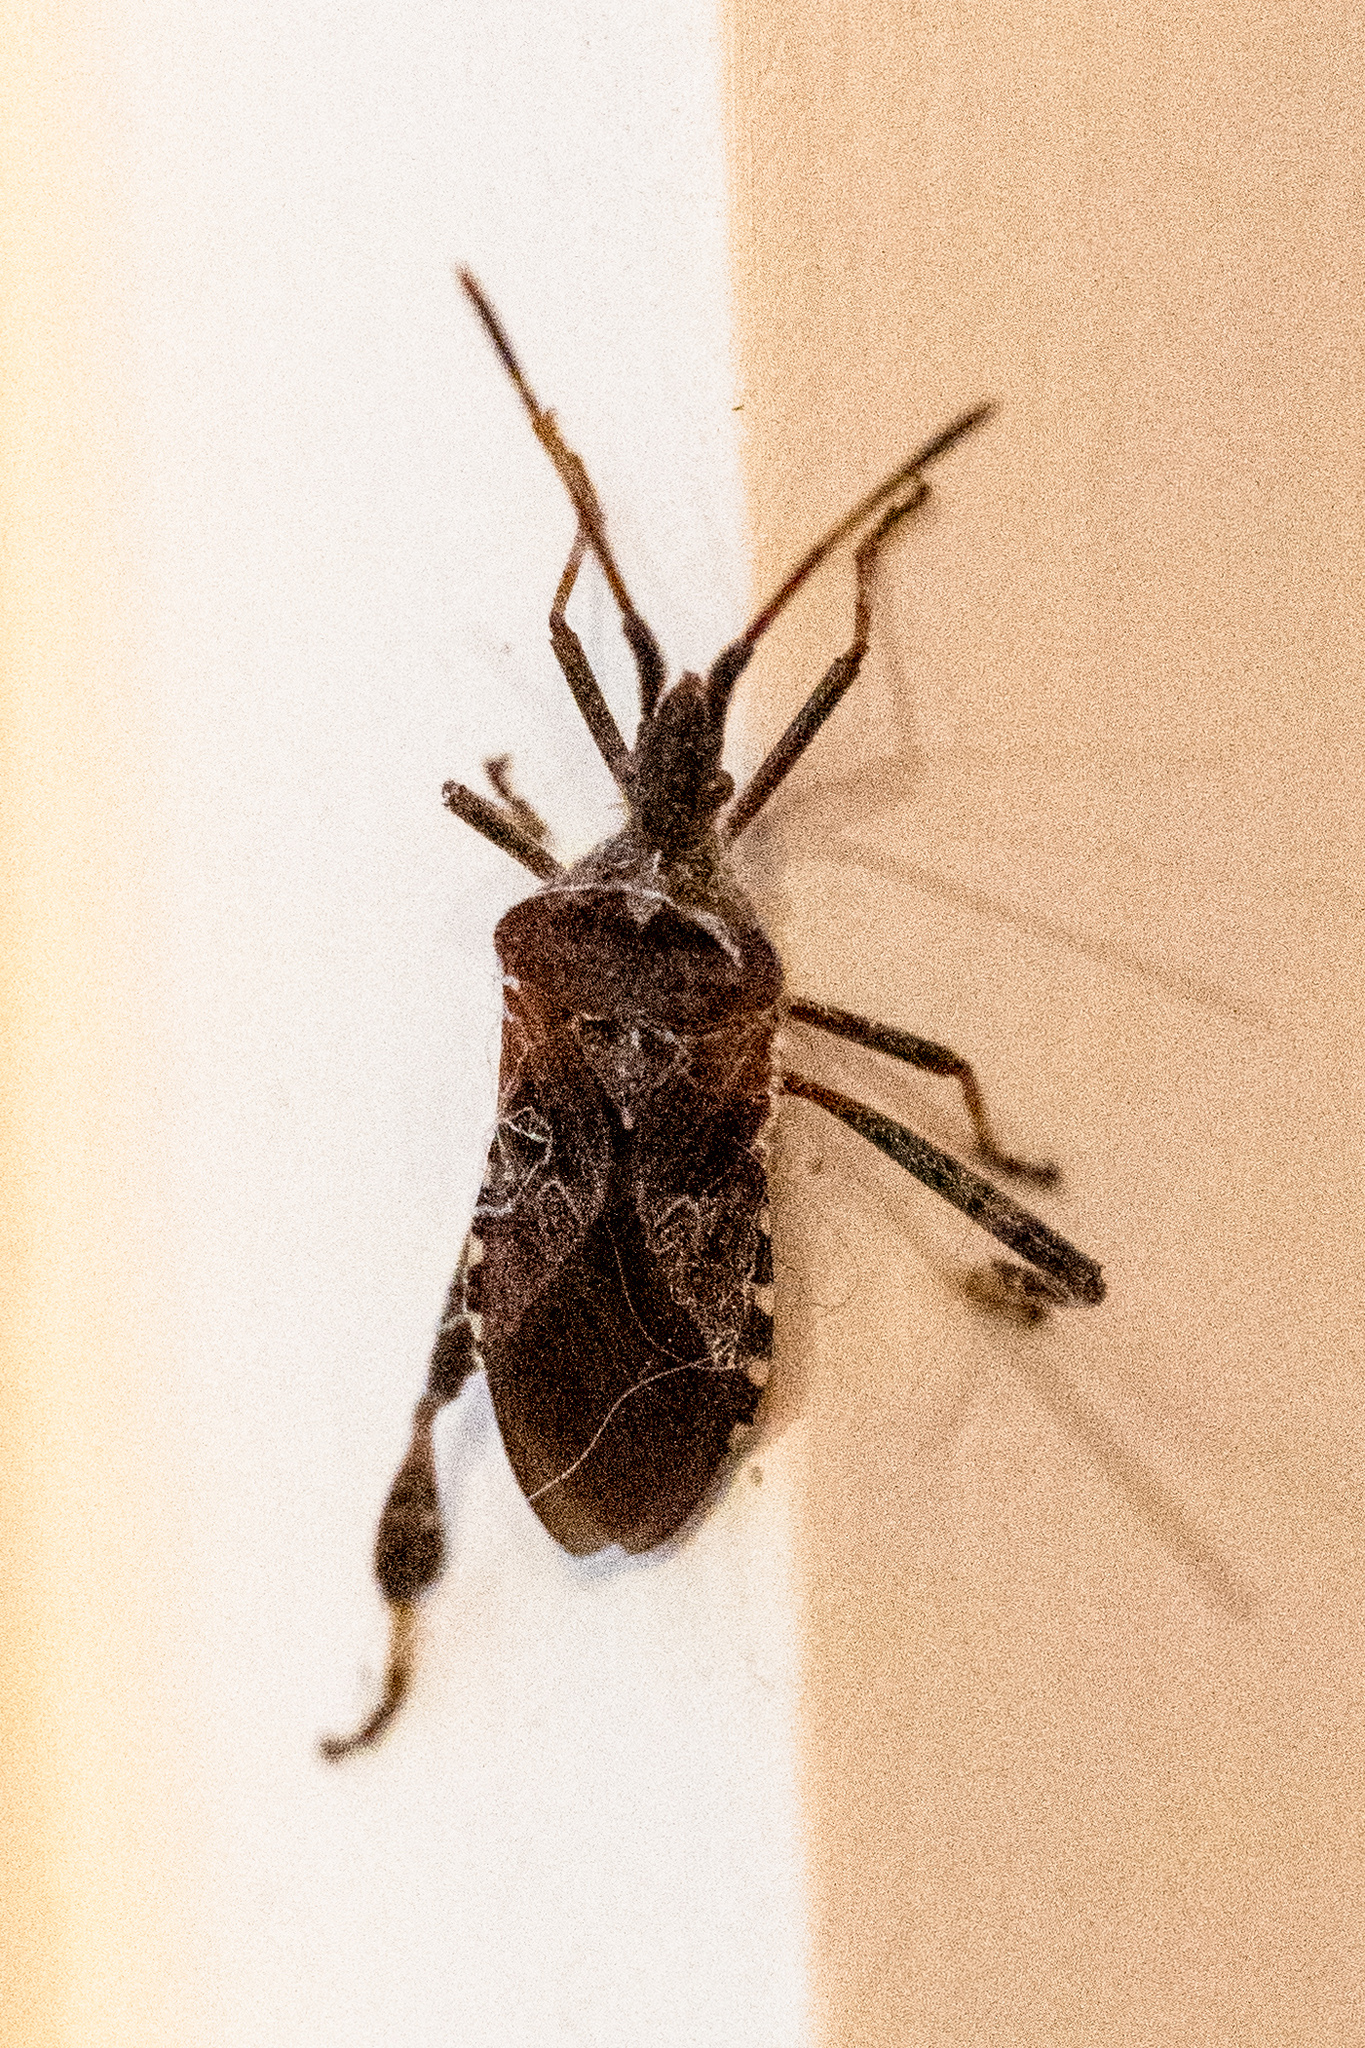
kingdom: Animalia
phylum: Arthropoda
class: Insecta
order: Hemiptera
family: Coreidae
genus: Leptoglossus
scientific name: Leptoglossus occidentalis
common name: Western conifer-seed bug
